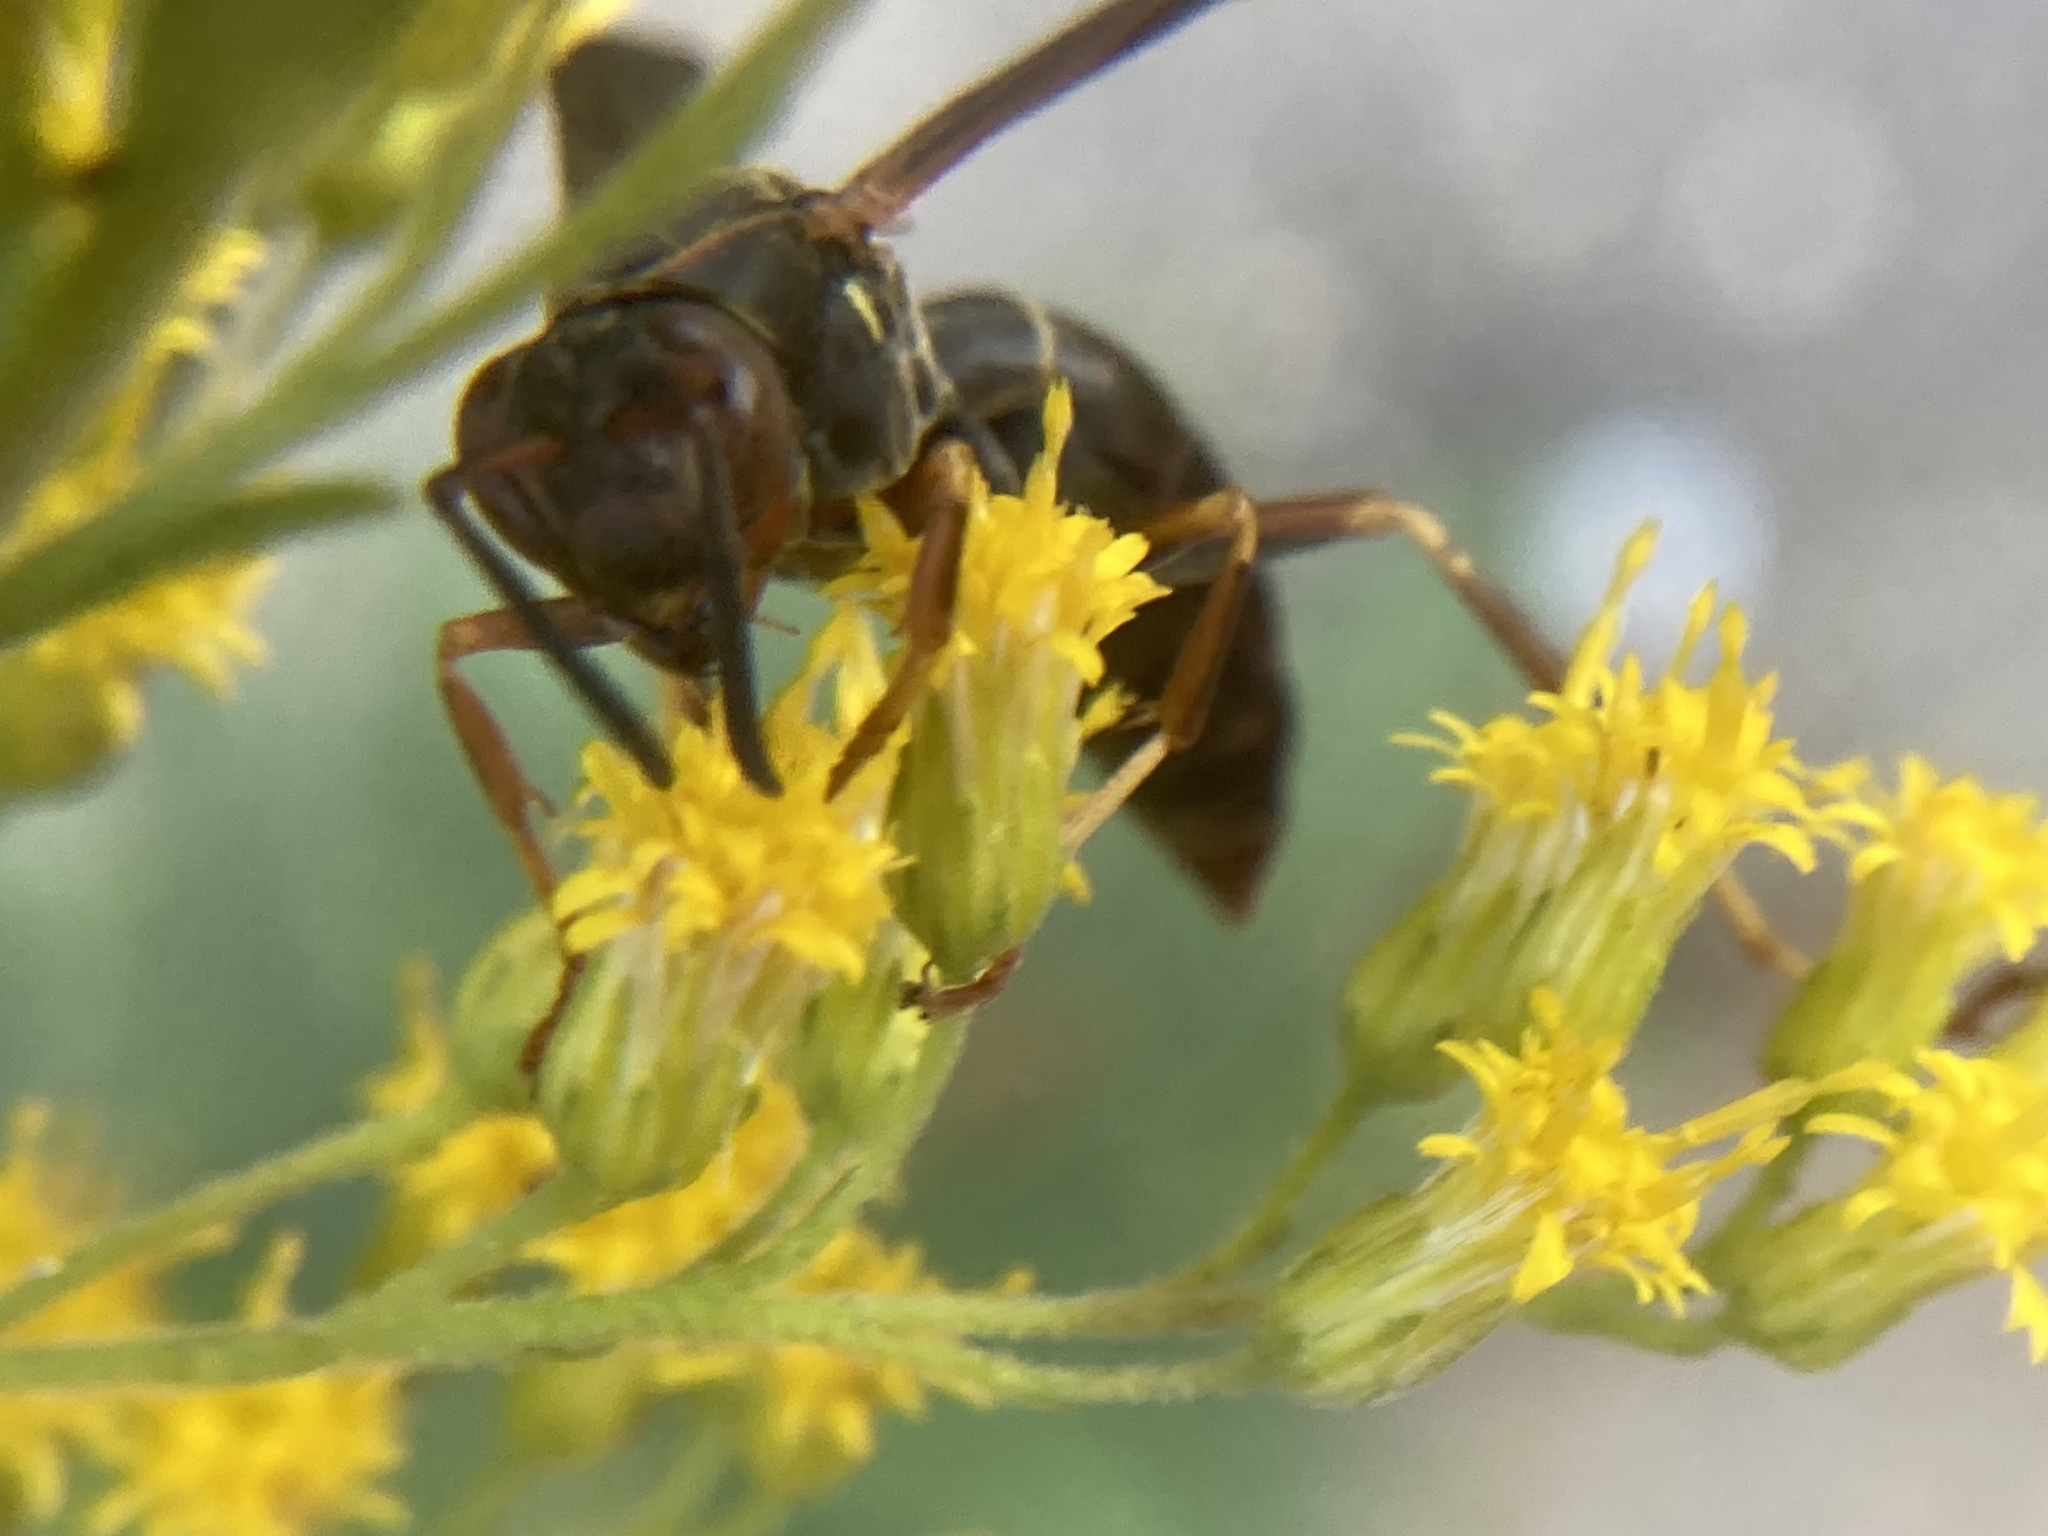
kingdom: Animalia
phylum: Arthropoda
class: Insecta
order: Hymenoptera
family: Eumenidae
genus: Polistes
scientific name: Polistes fuscatus
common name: Dark paper wasp
